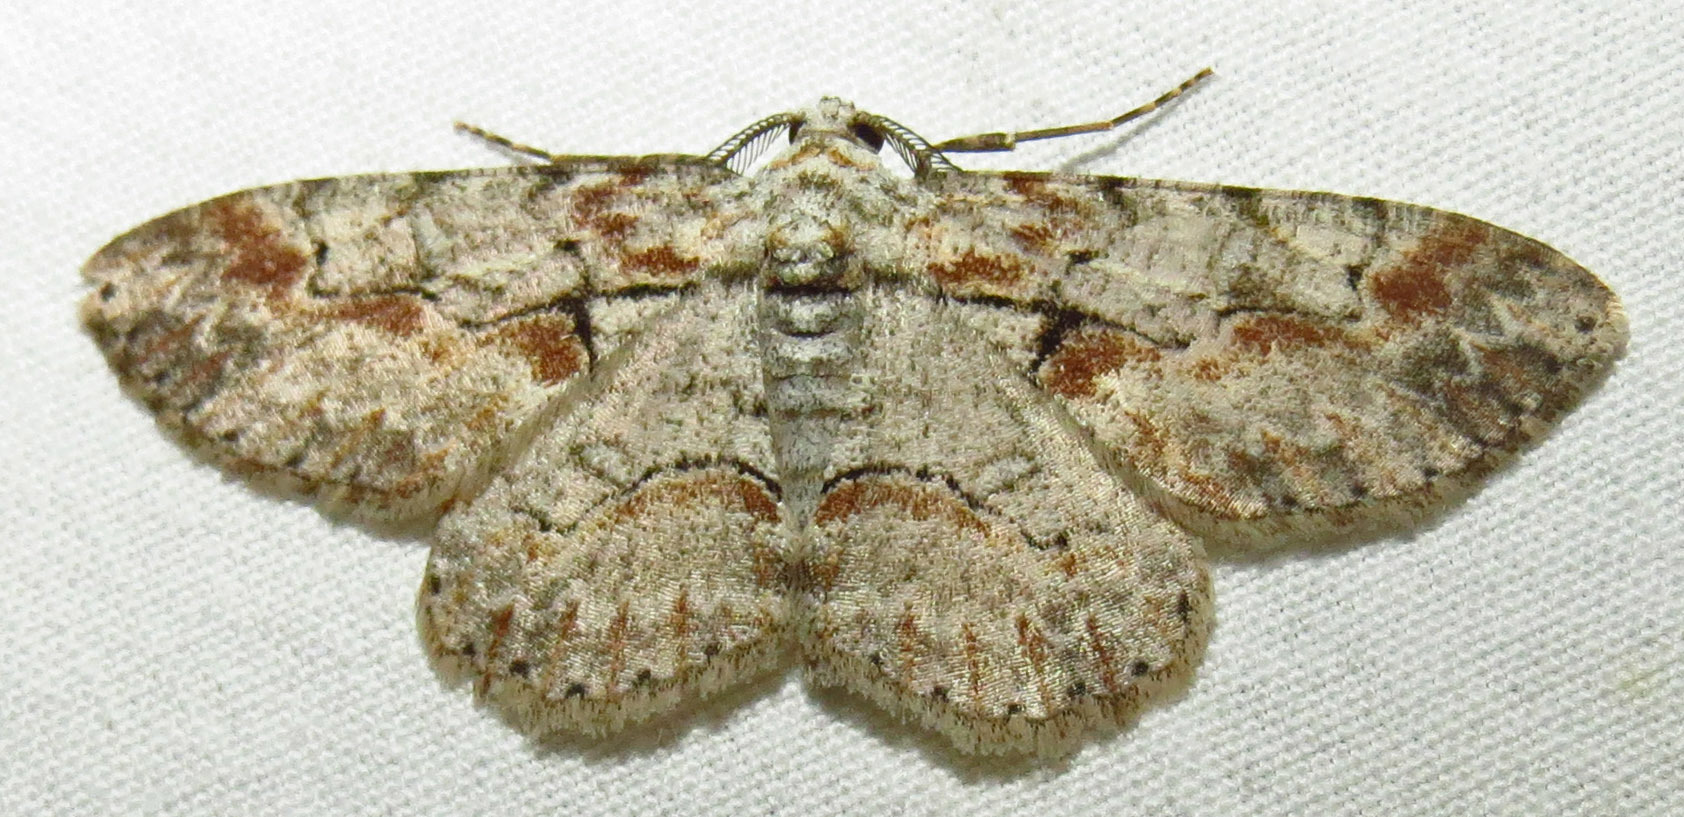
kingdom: Animalia
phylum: Arthropoda
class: Insecta
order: Lepidoptera
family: Geometridae
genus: Iridopsis
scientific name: Iridopsis defectaria
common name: Brown-shaded gray
